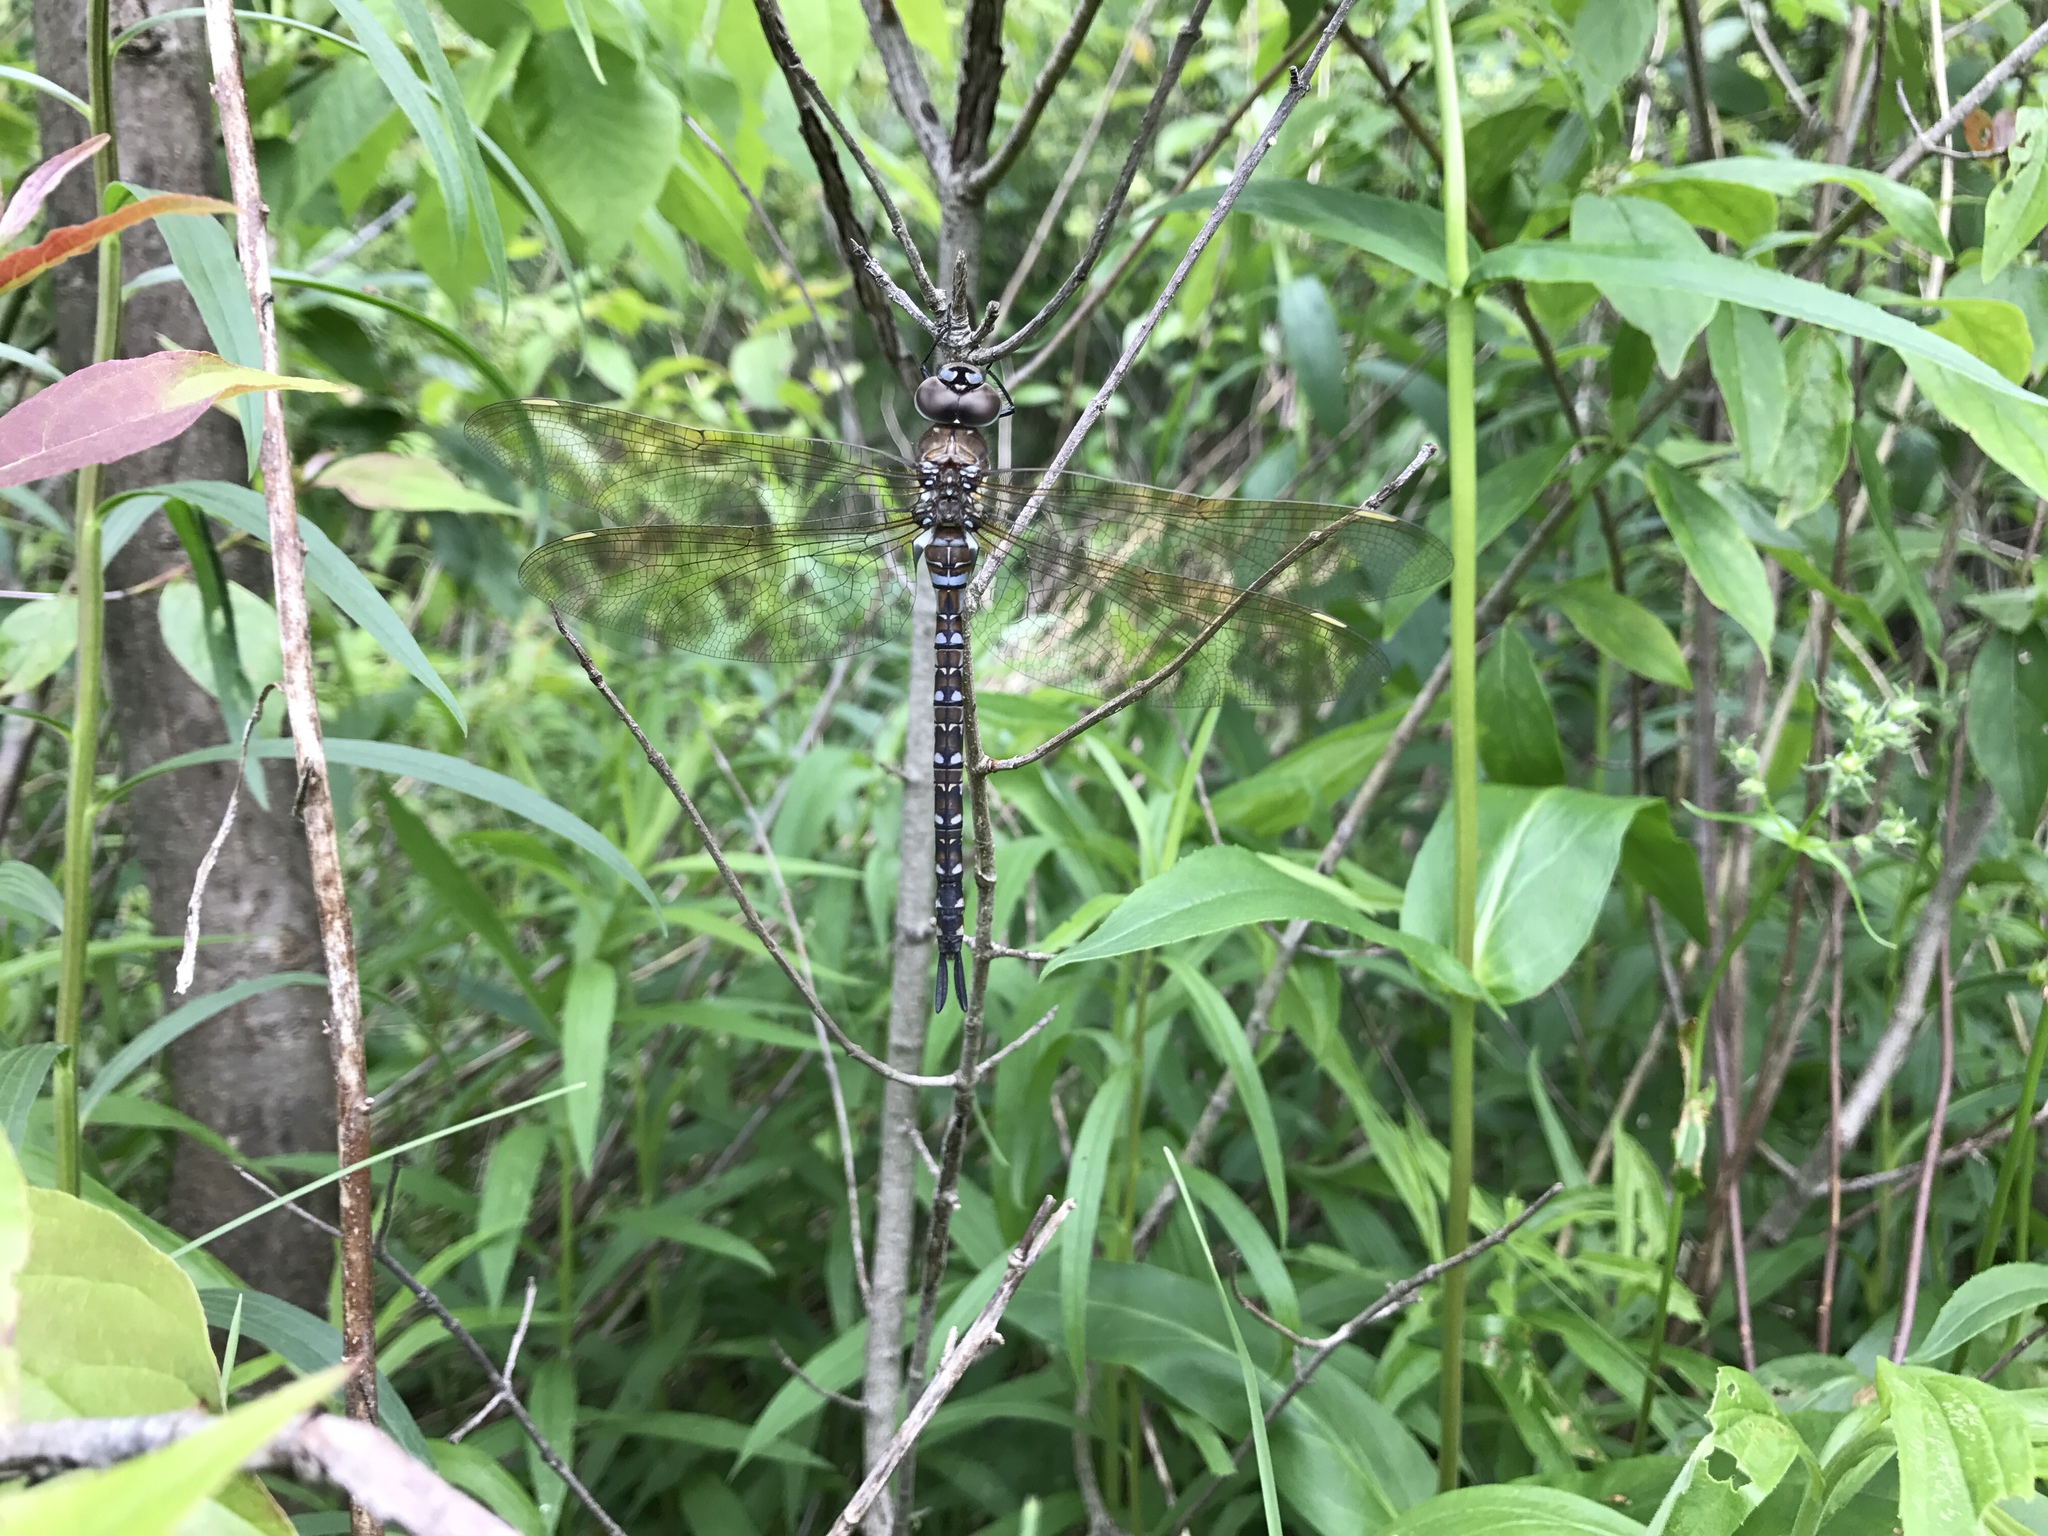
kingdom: Animalia
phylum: Arthropoda
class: Insecta
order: Odonata
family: Aeshnidae
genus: Rhionaeschna
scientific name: Rhionaeschna mutata
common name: Spatterdock darner
